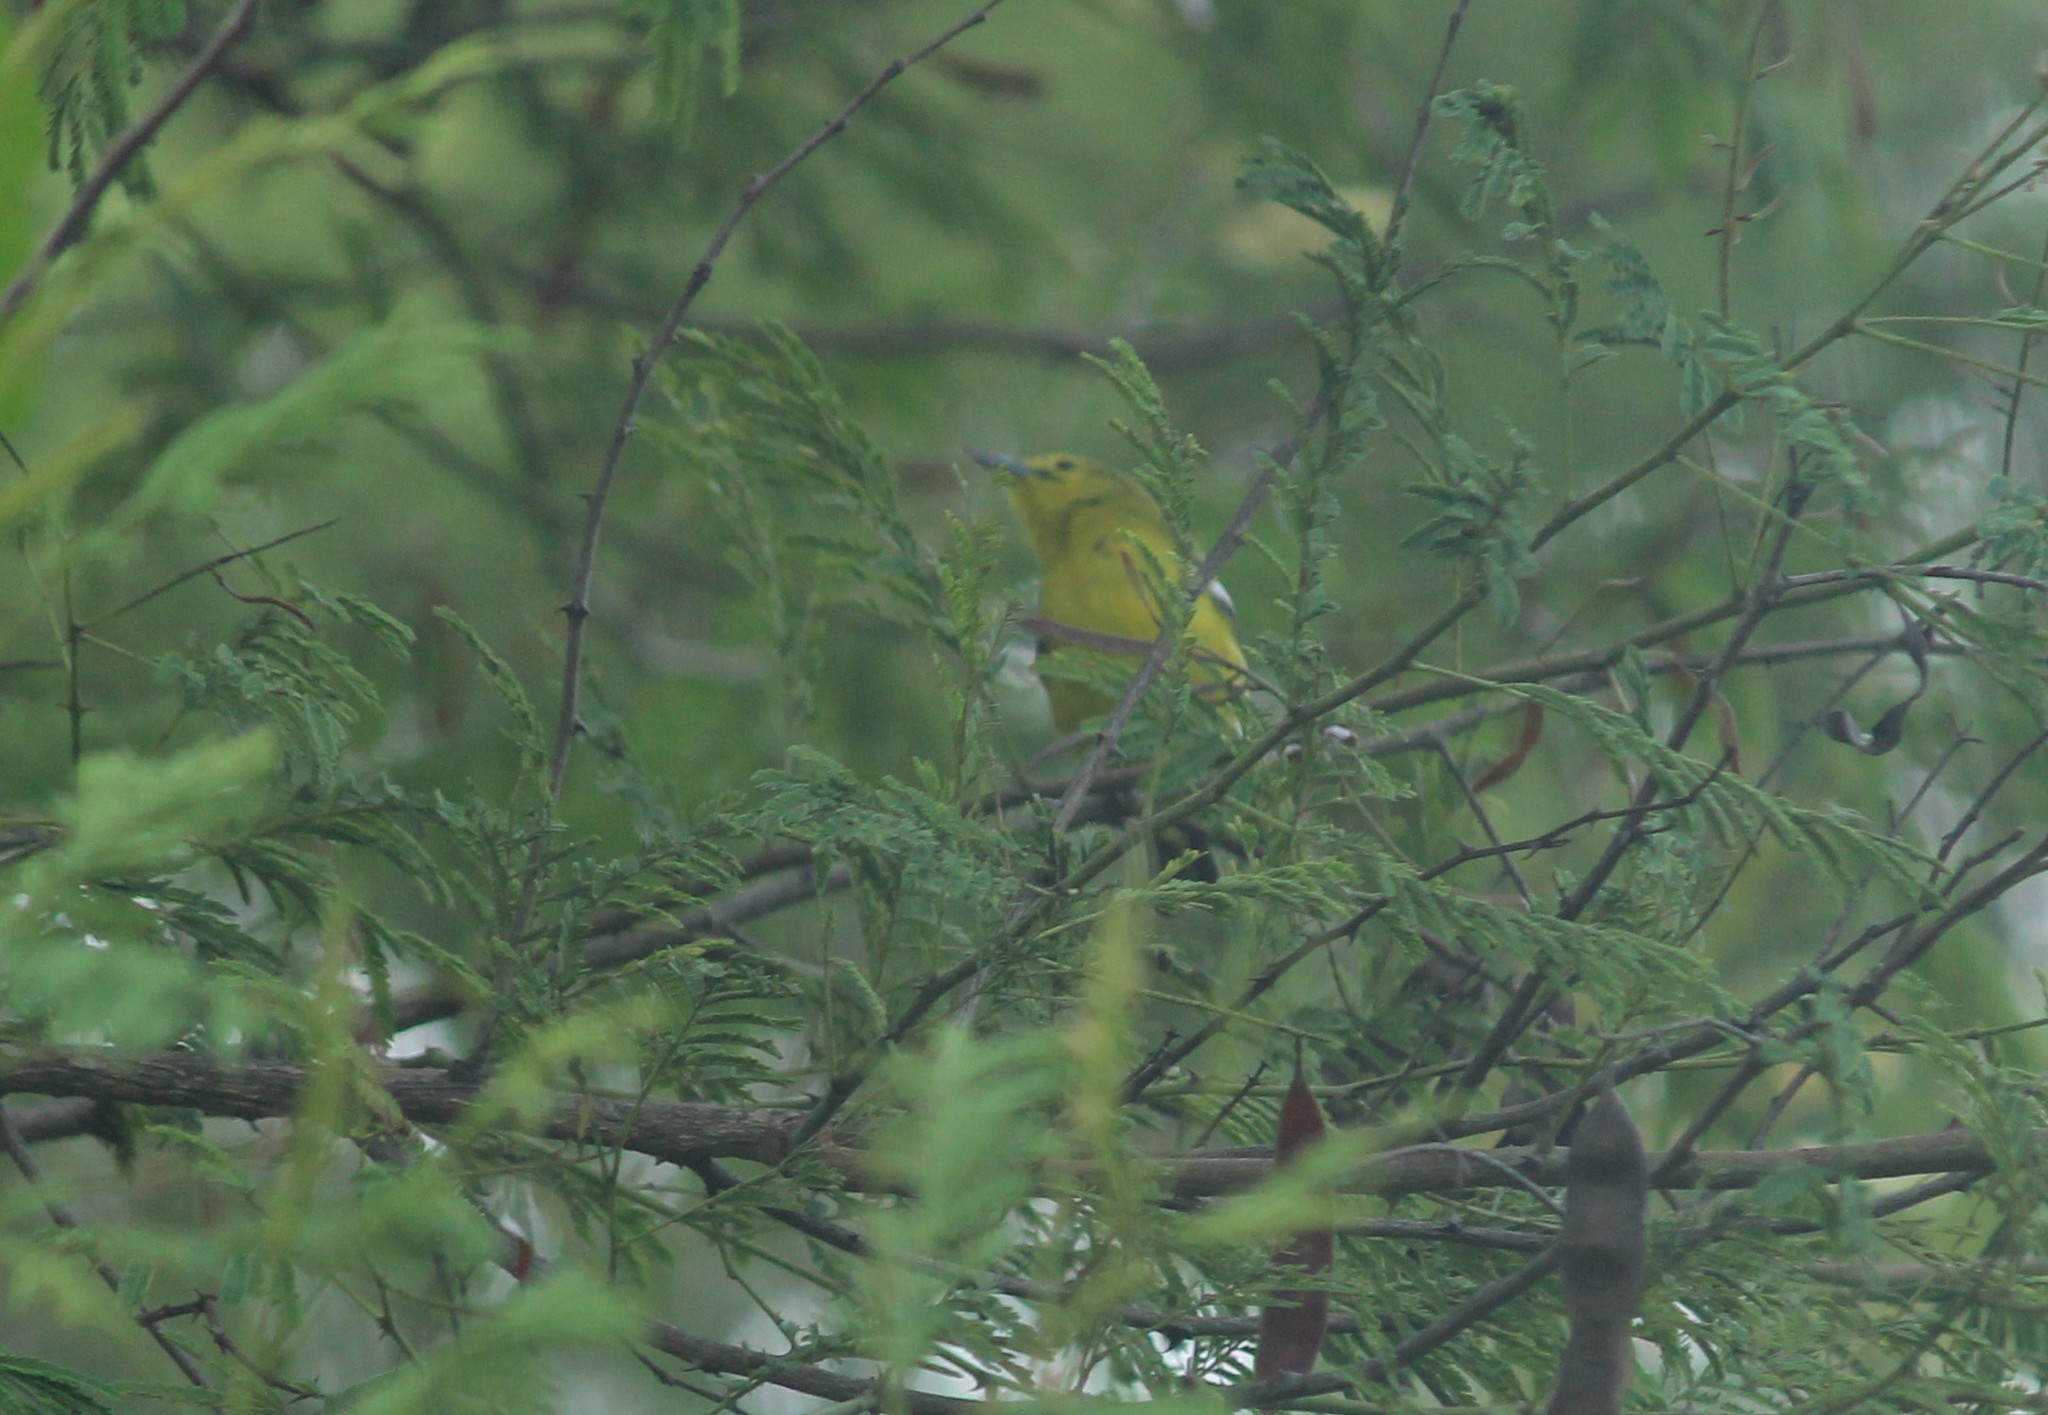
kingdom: Animalia
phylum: Chordata
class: Aves
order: Passeriformes
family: Aegithinidae
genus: Aegithina
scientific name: Aegithina tiphia
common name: Common iora
